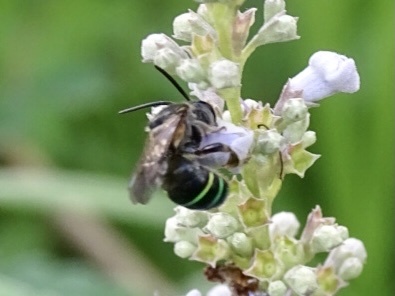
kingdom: Animalia
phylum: Arthropoda
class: Insecta
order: Hymenoptera
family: Halictidae
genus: Nomia
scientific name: Nomia iridescens
